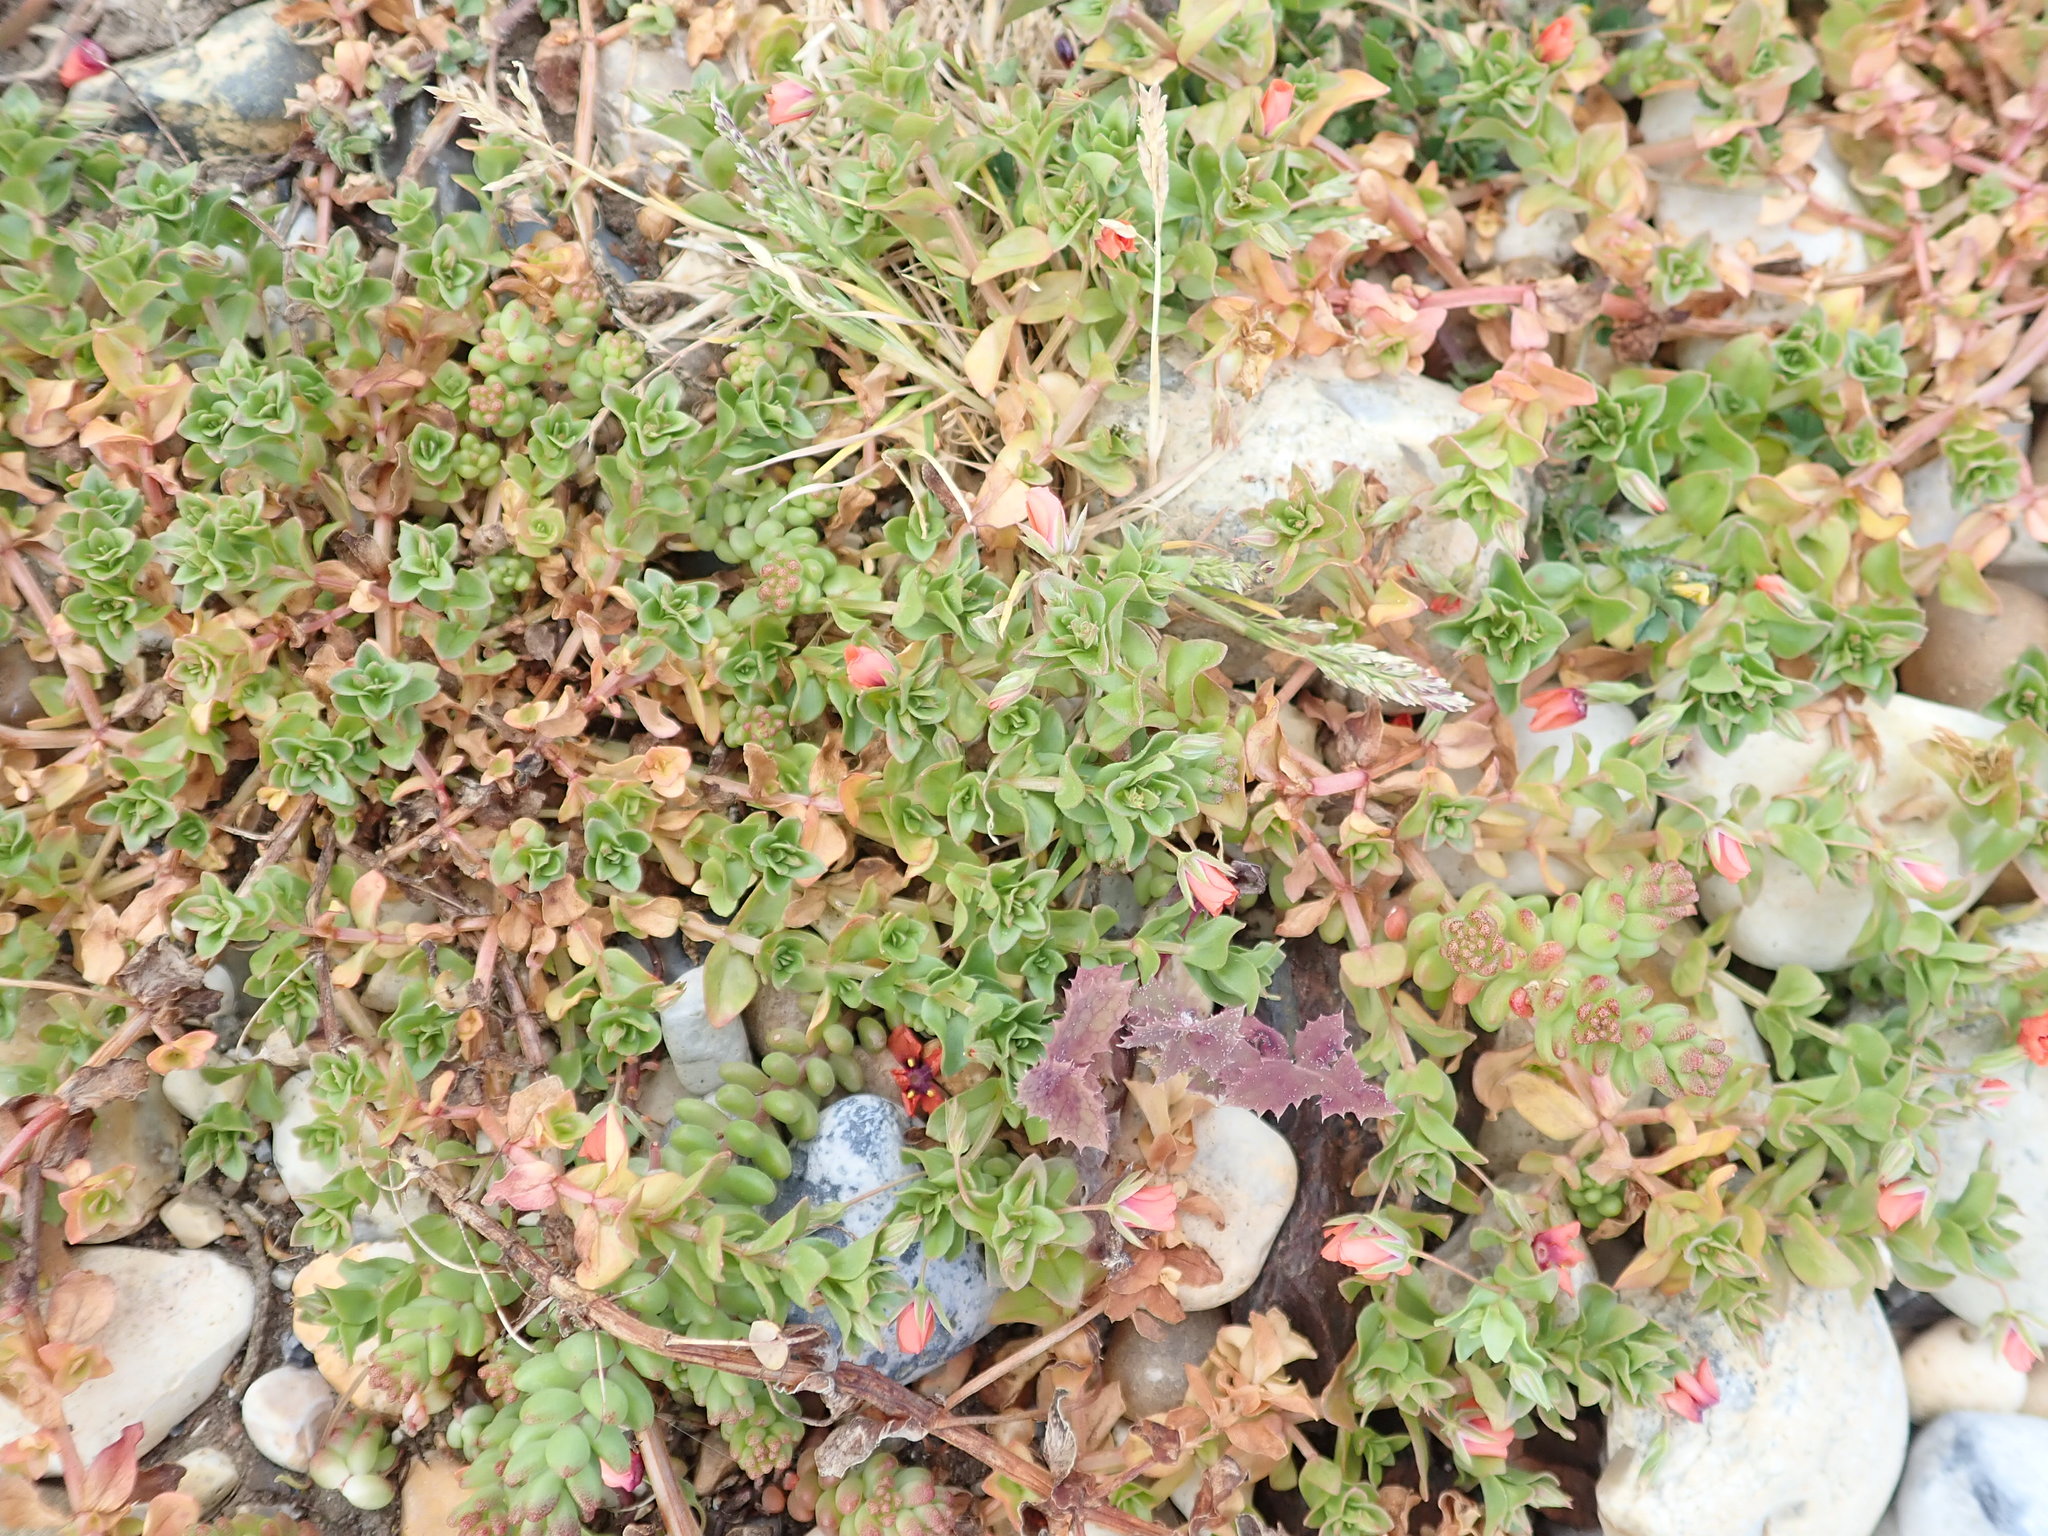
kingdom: Plantae
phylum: Tracheophyta
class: Magnoliopsida
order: Ericales
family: Primulaceae
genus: Lysimachia
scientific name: Lysimachia arvensis
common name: Scarlet pimpernel
